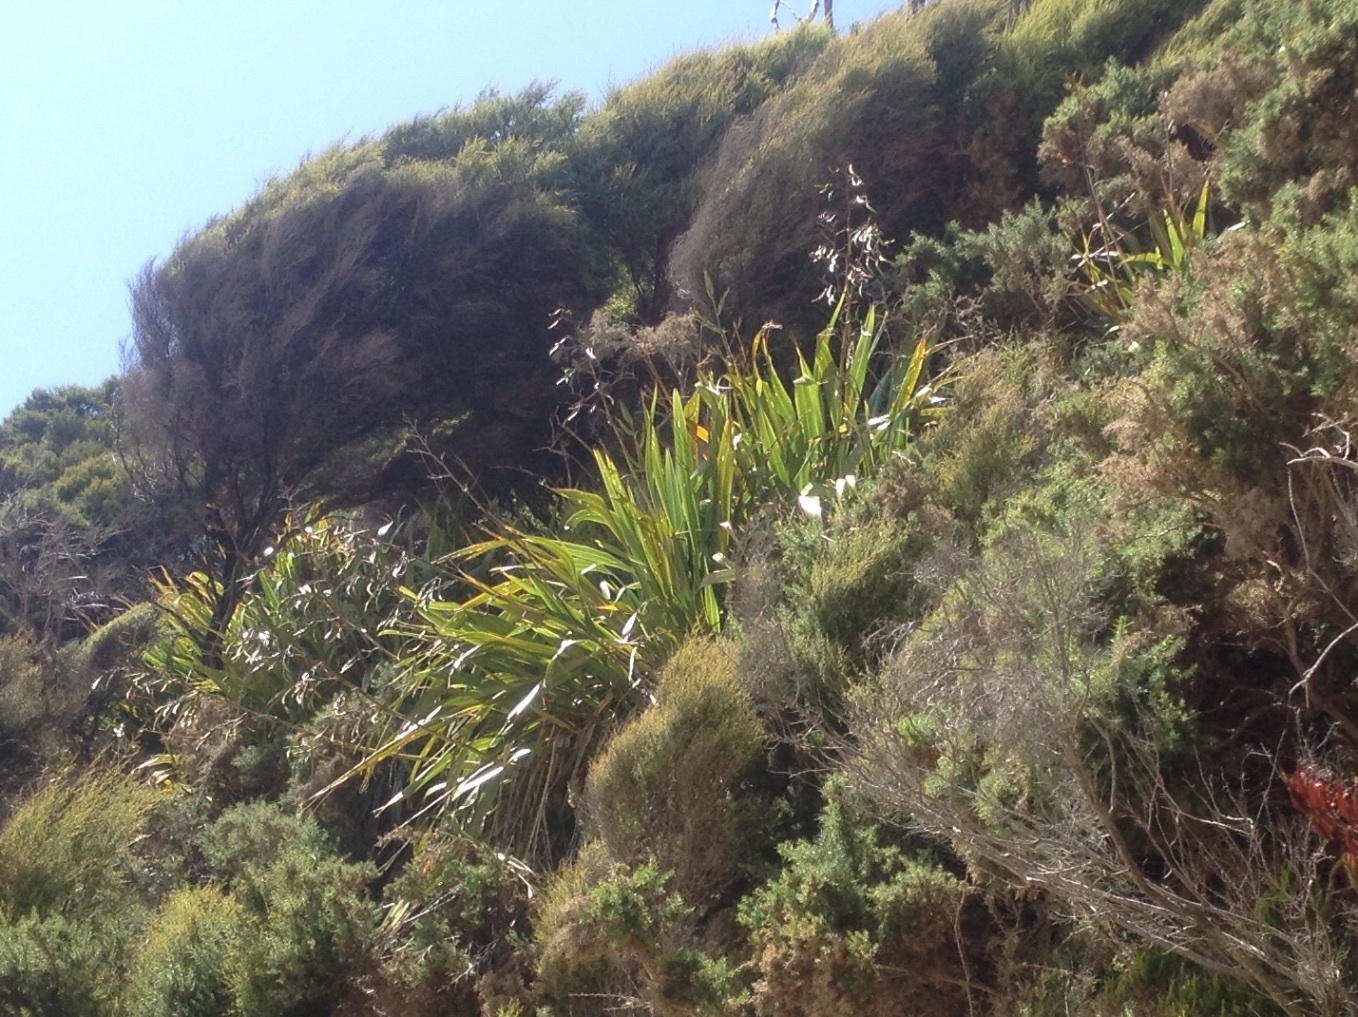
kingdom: Plantae
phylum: Tracheophyta
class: Liliopsida
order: Asparagales
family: Asphodelaceae
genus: Phormium
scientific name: Phormium colensoi
